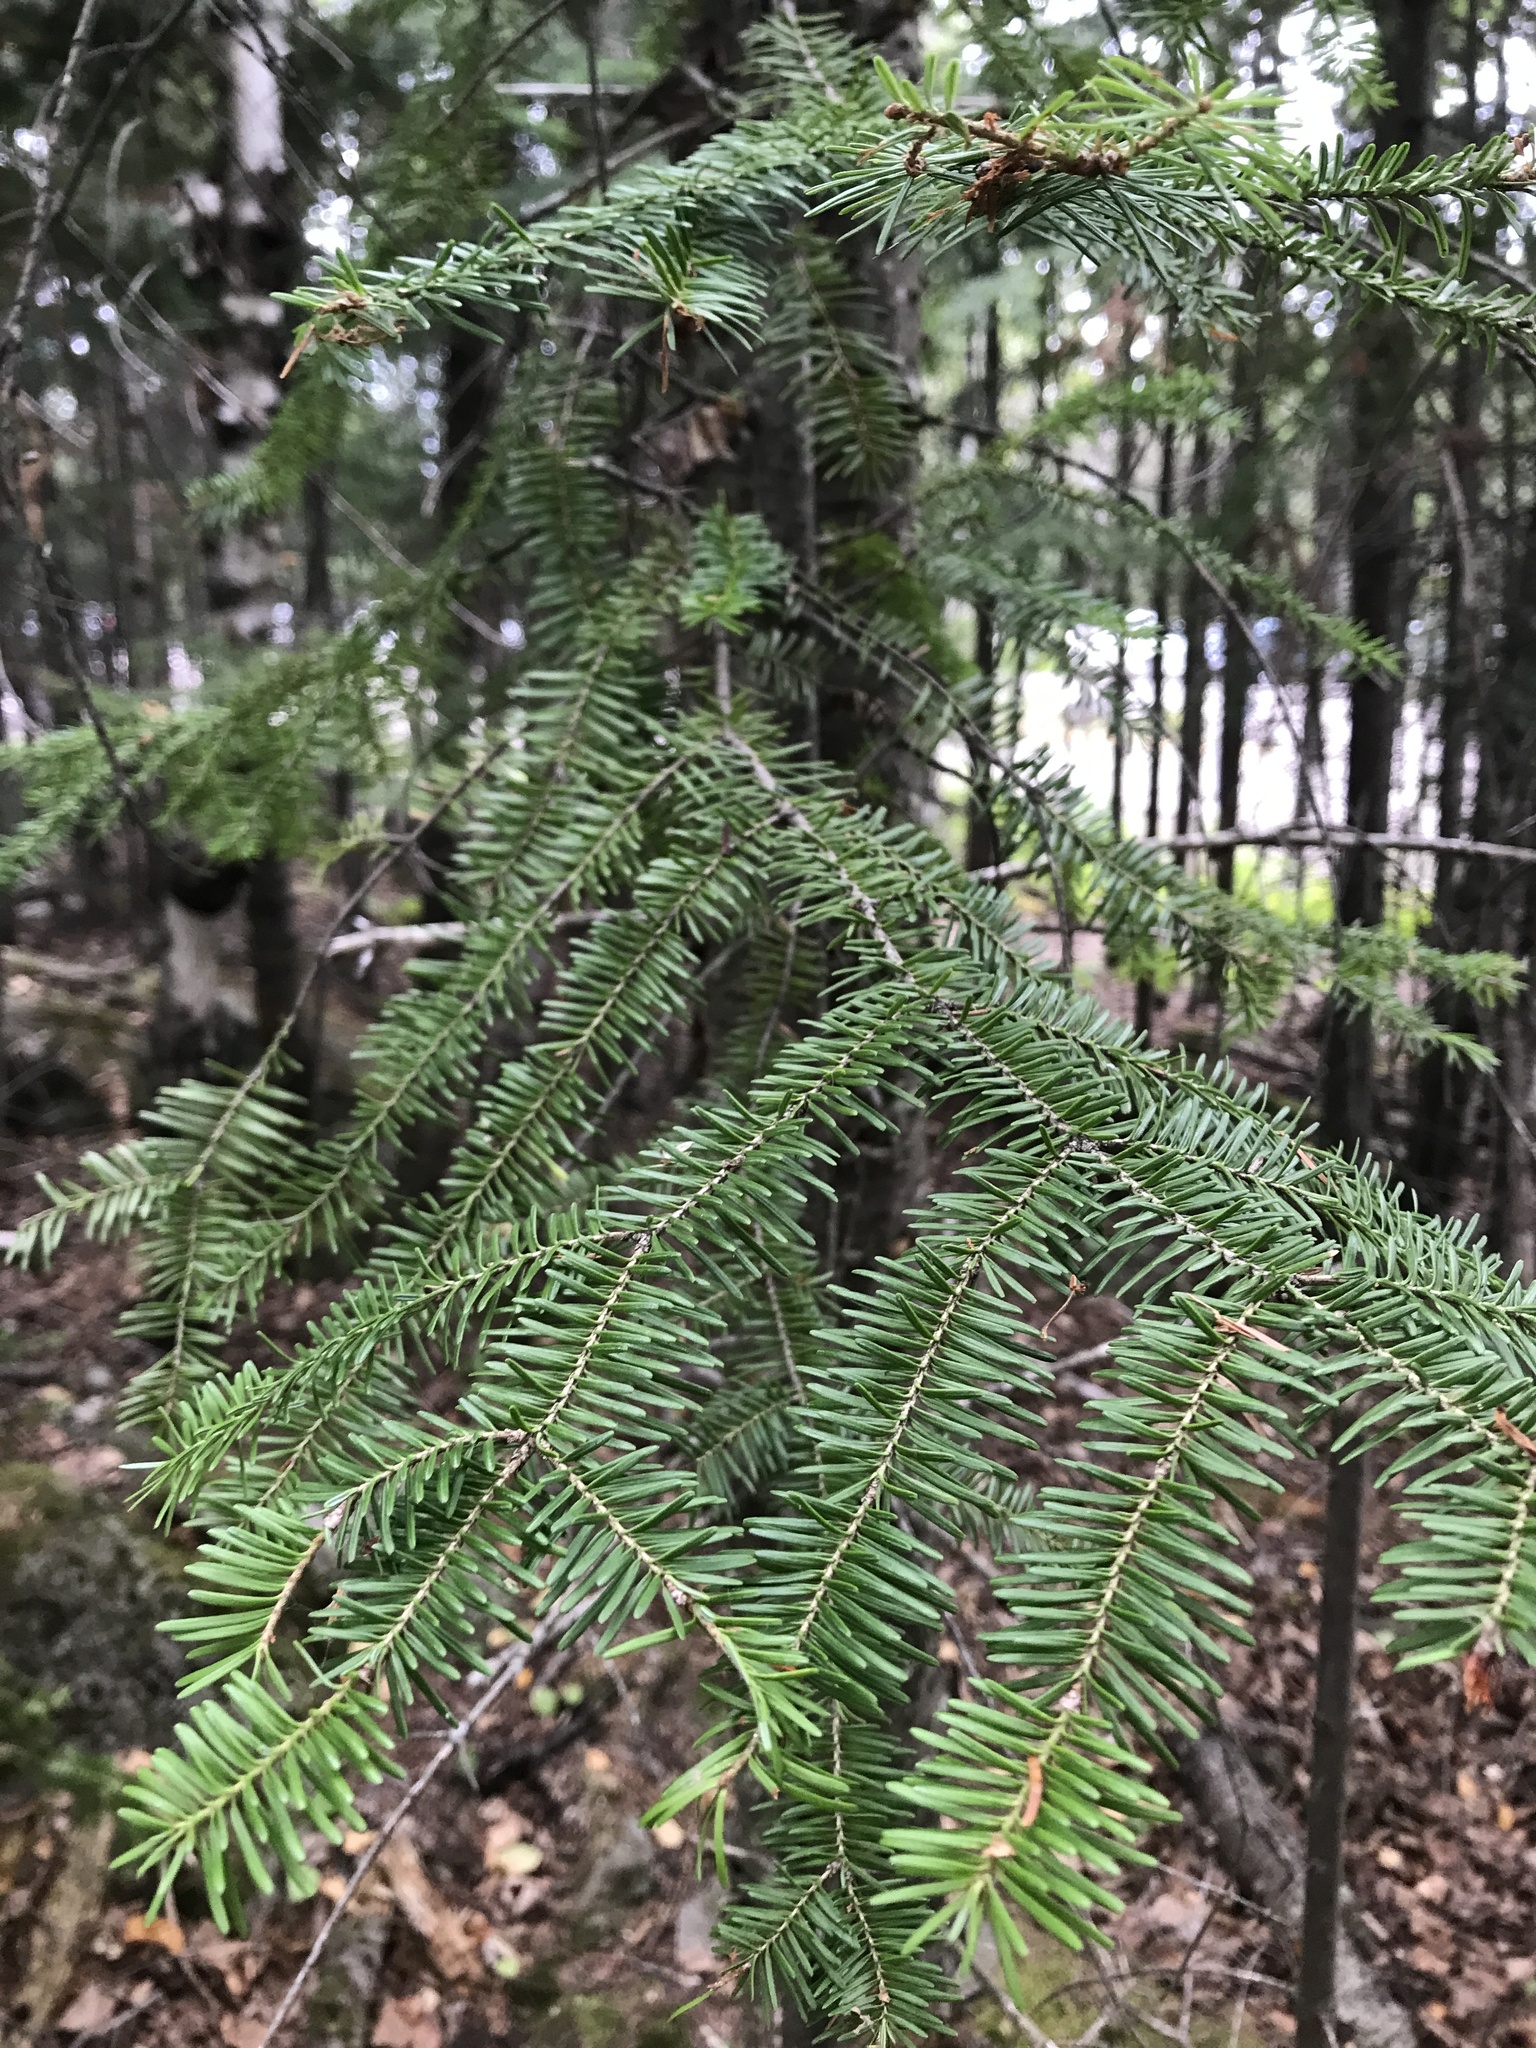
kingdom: Plantae
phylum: Tracheophyta
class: Pinopsida
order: Pinales
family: Pinaceae
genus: Abies
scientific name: Abies balsamea
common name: Balsam fir
